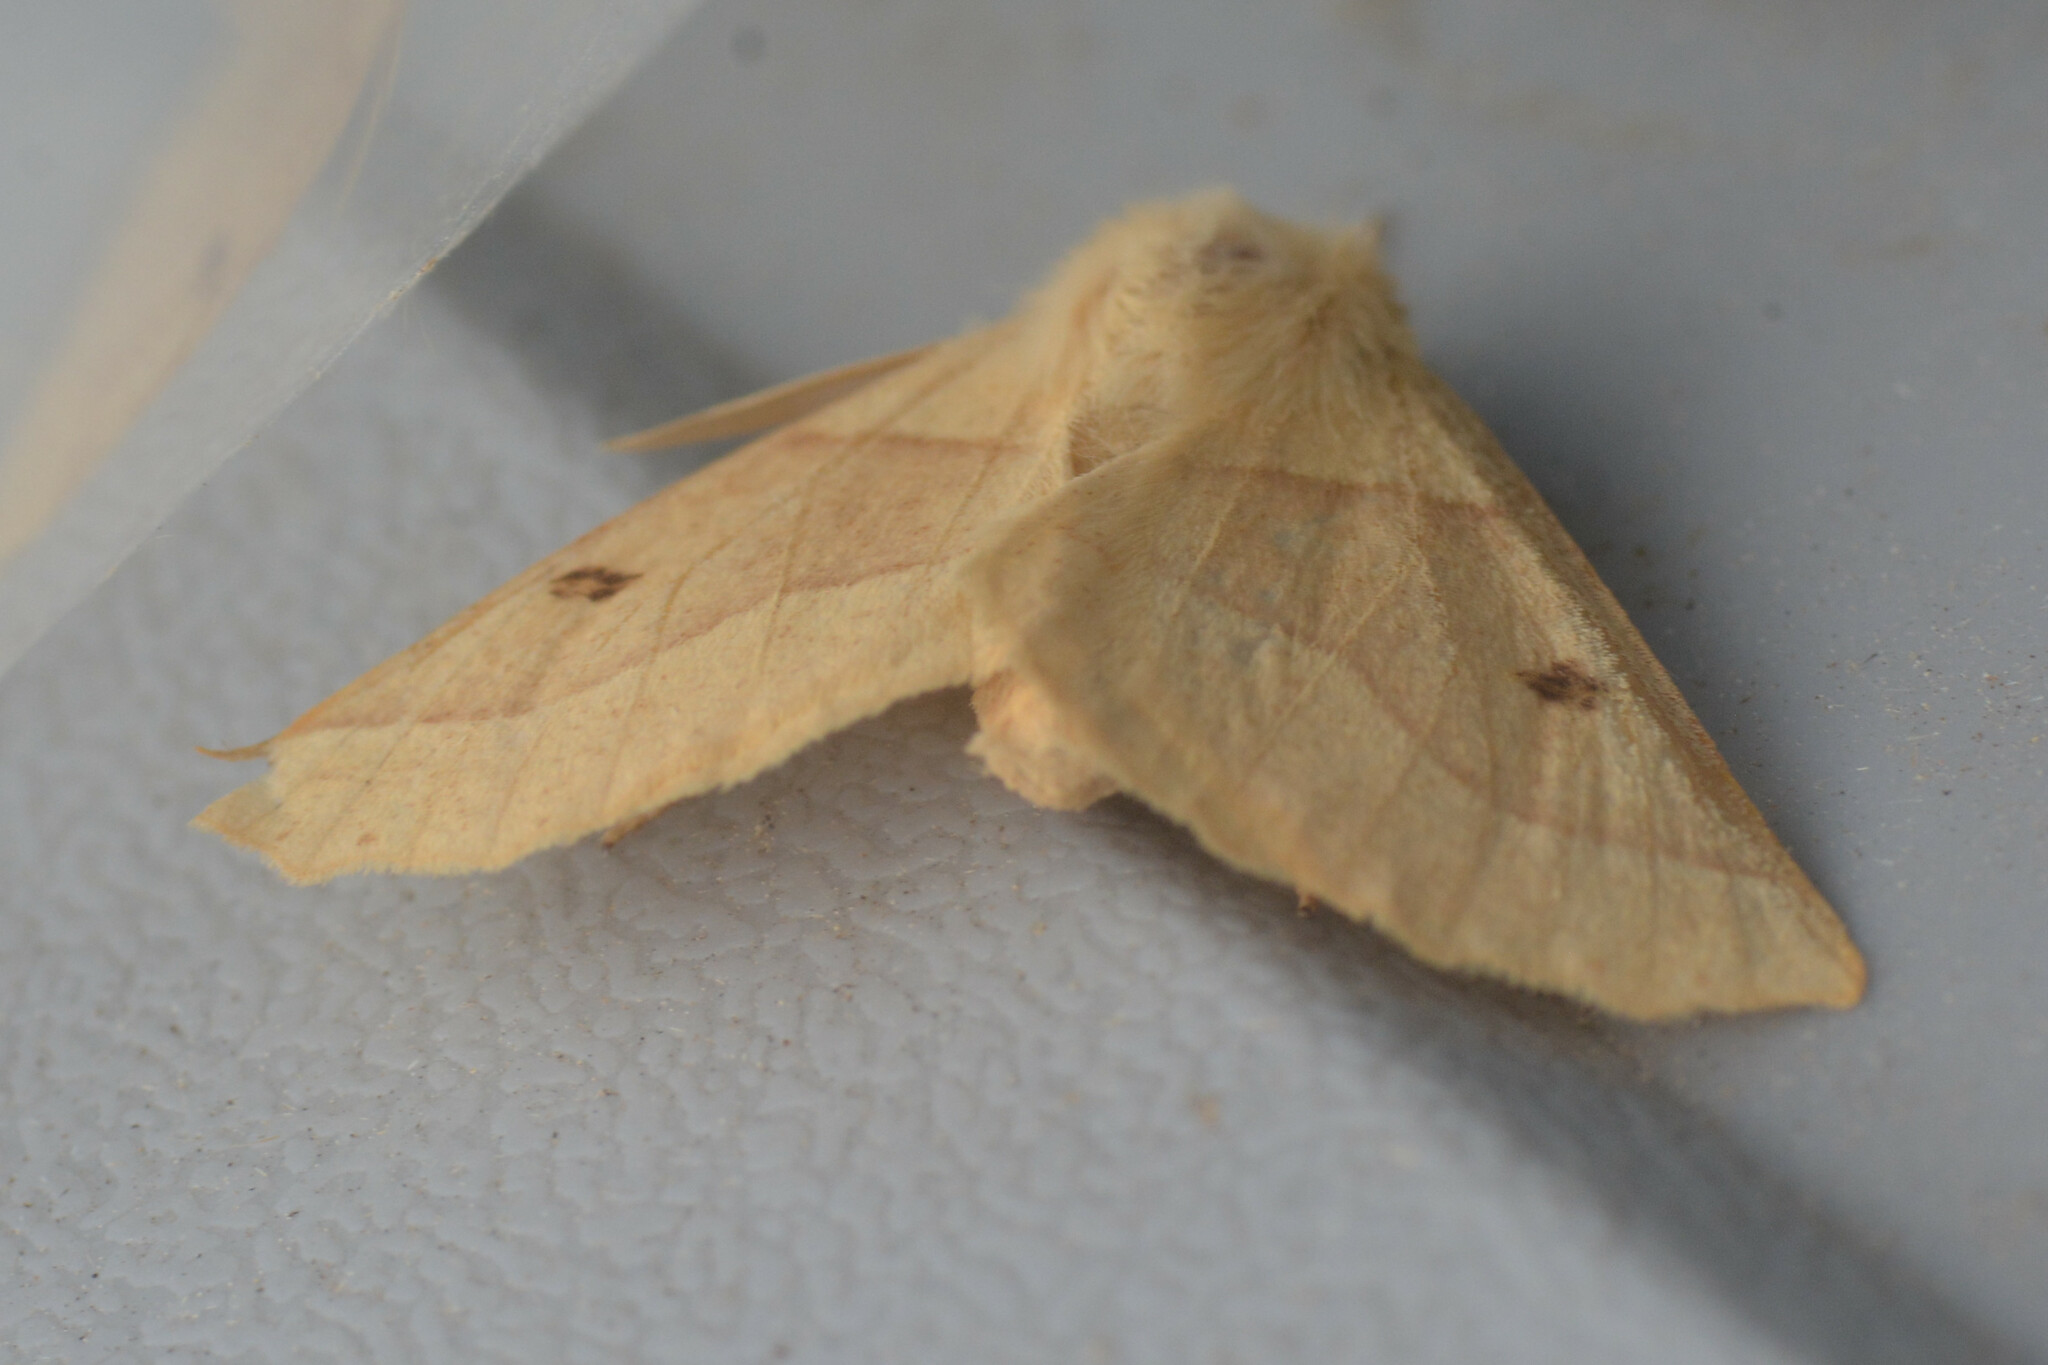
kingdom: Animalia
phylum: Arthropoda
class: Insecta
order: Lepidoptera
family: Geometridae
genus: Crocallis
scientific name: Crocallis elinguaria
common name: Scalloped oak
